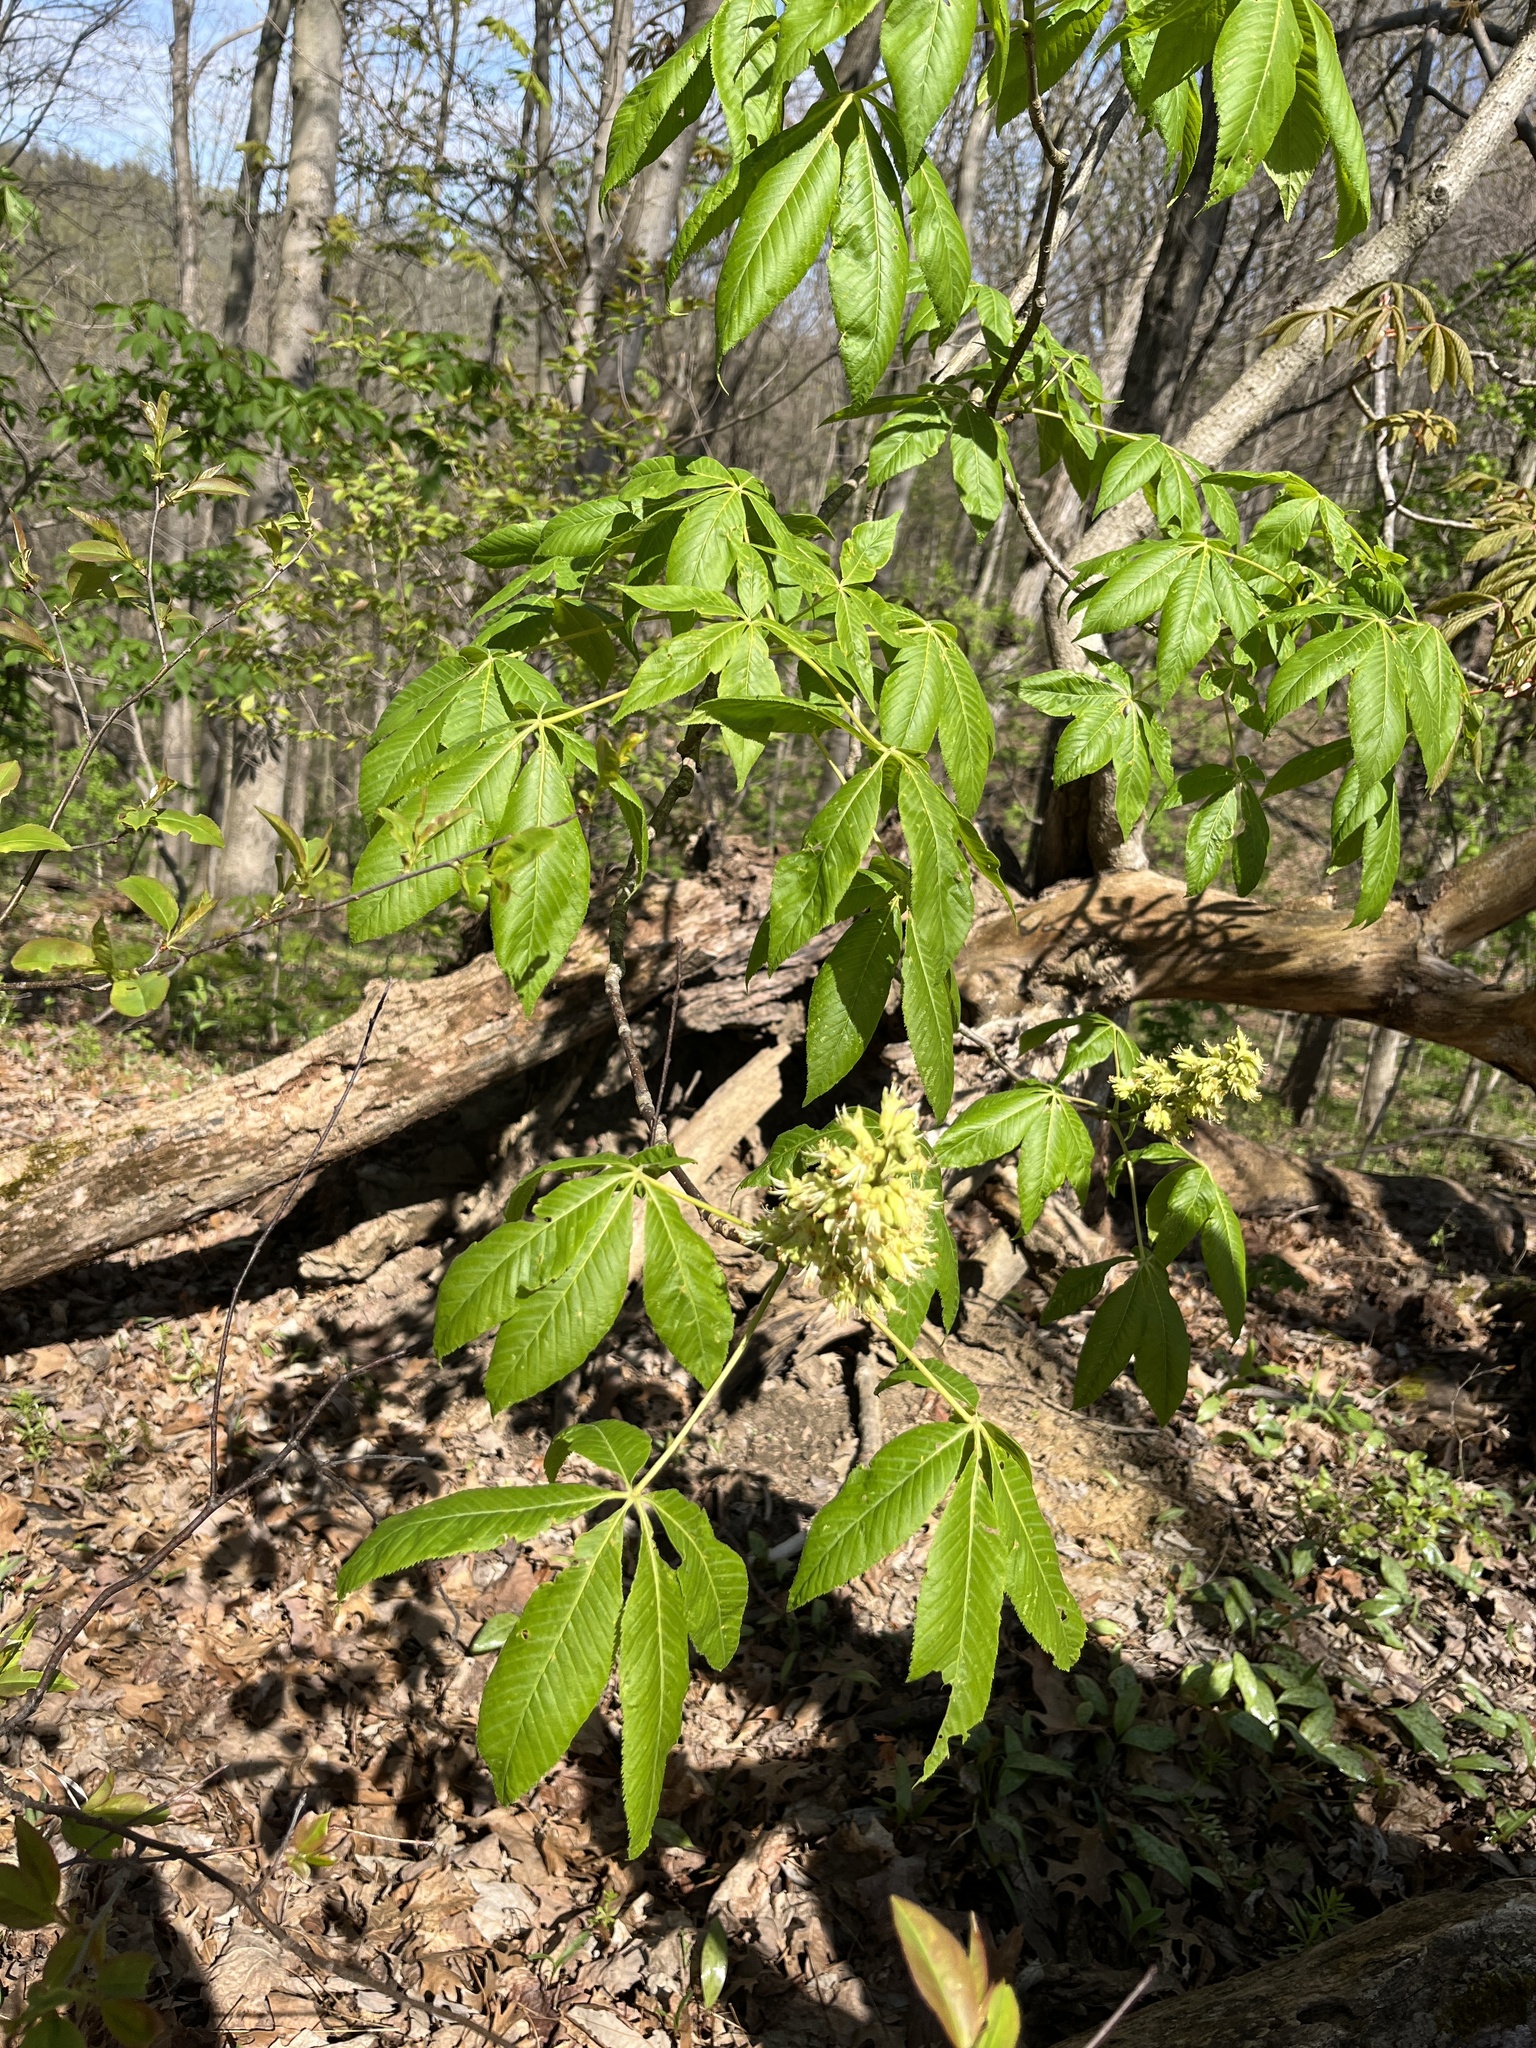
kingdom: Plantae
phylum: Tracheophyta
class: Magnoliopsida
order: Sapindales
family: Sapindaceae
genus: Aesculus
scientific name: Aesculus glabra
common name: Ohio buckeye
